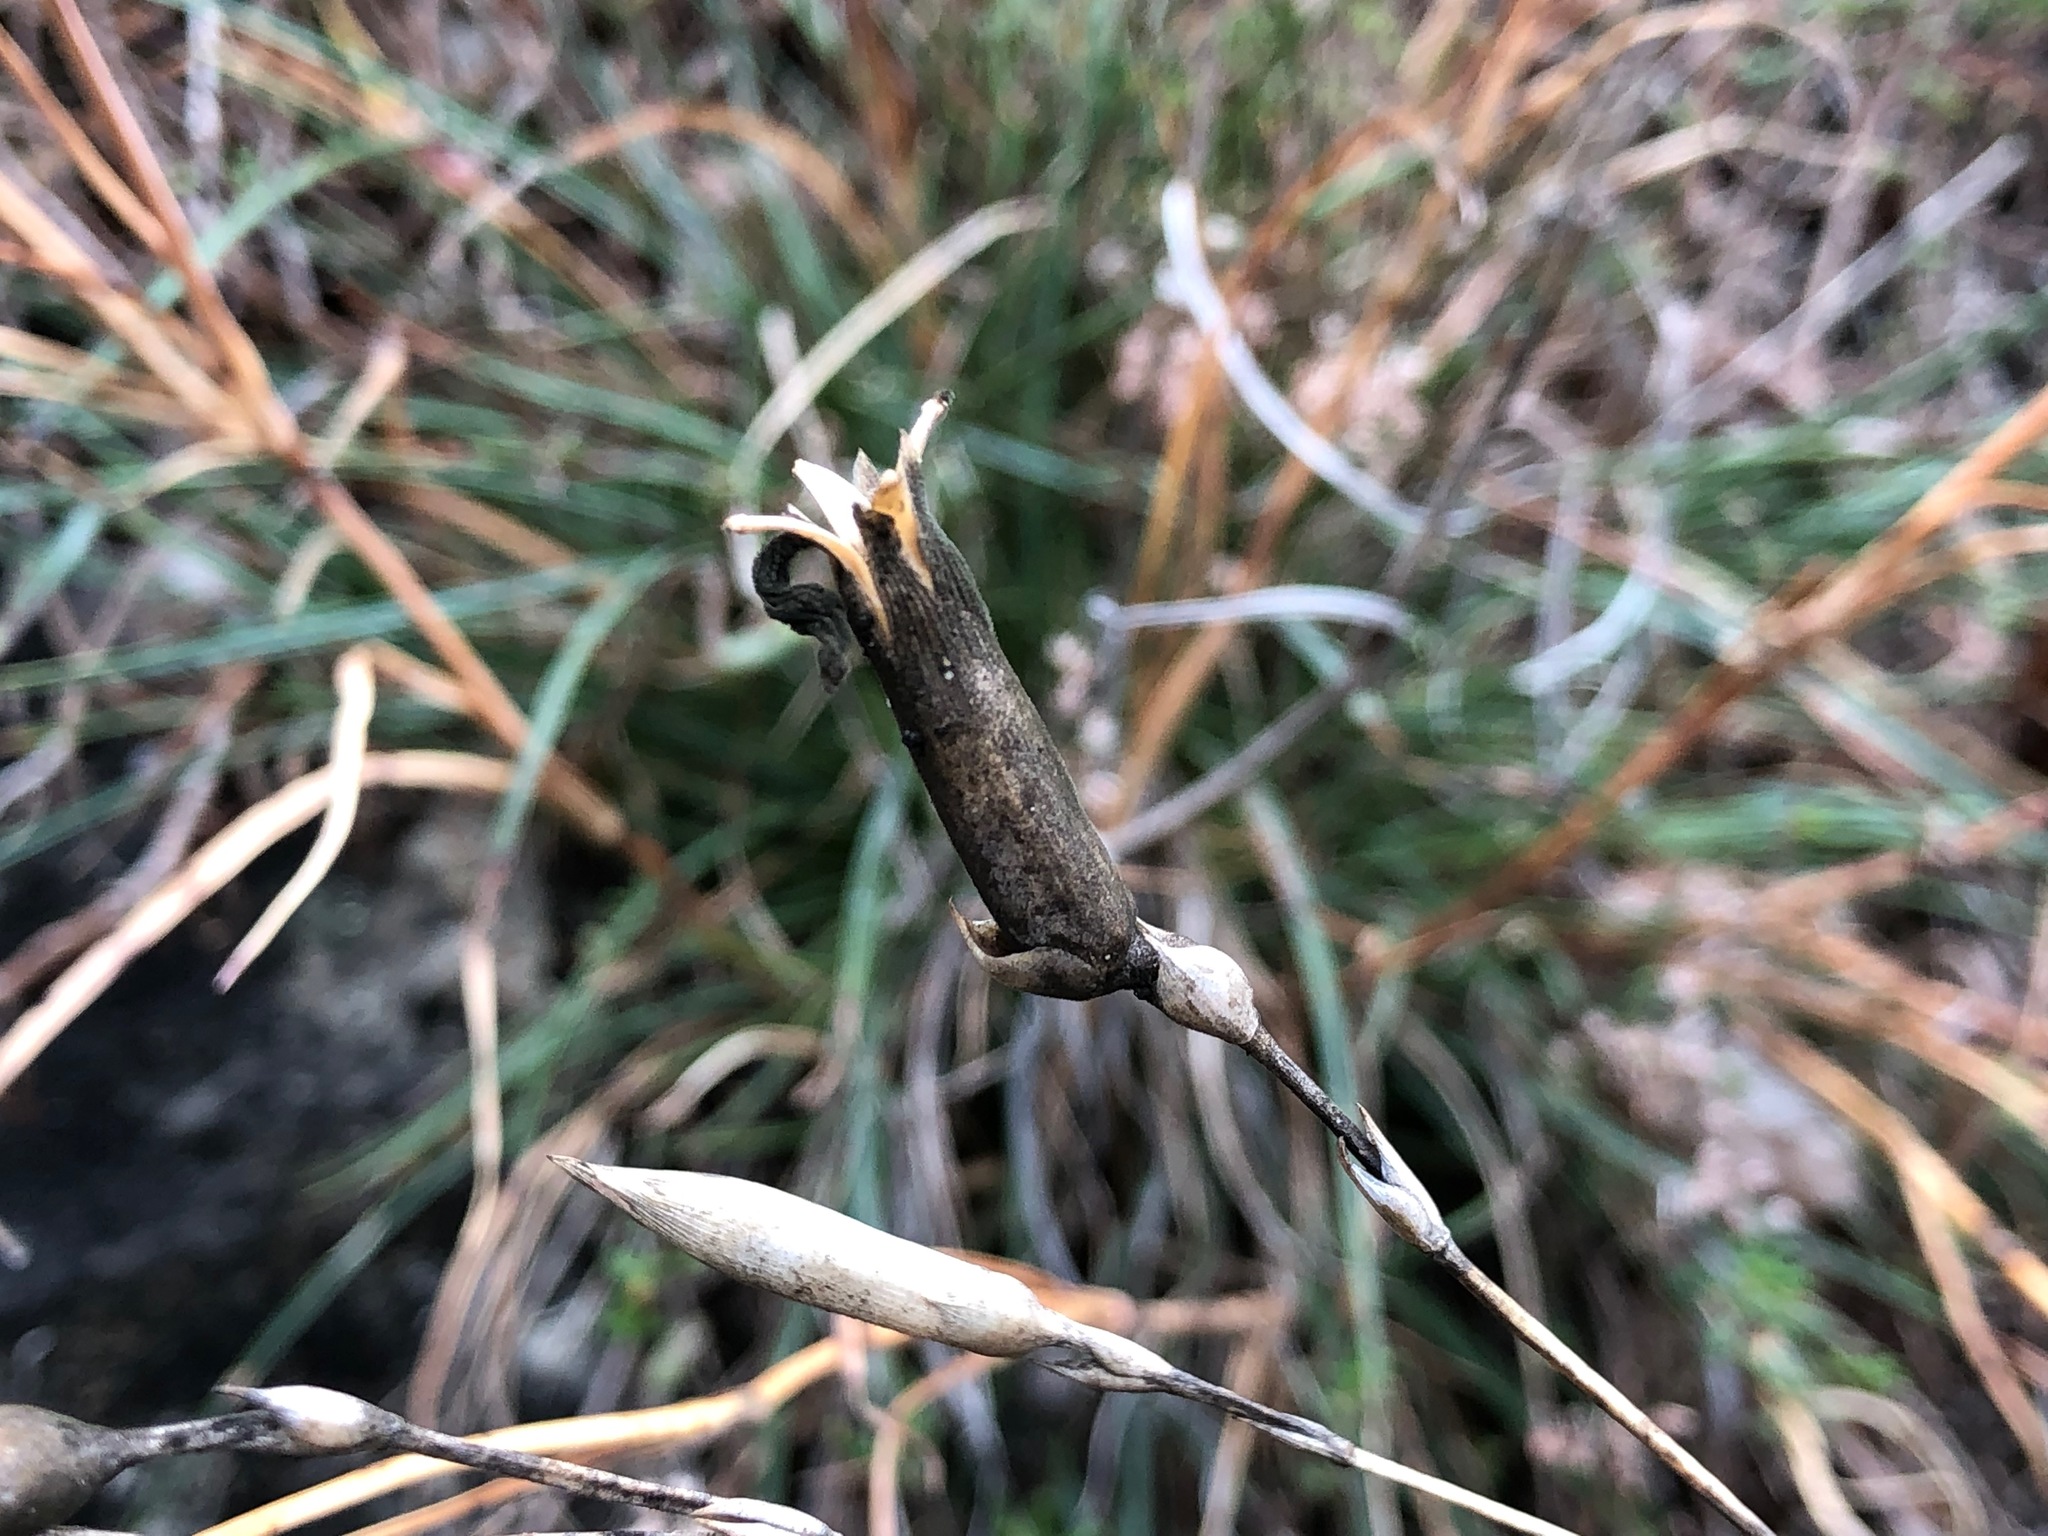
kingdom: Plantae
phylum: Tracheophyta
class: Magnoliopsida
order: Caryophyllales
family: Caryophyllaceae
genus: Dianthus
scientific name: Dianthus sylvestris
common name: Wood pink
